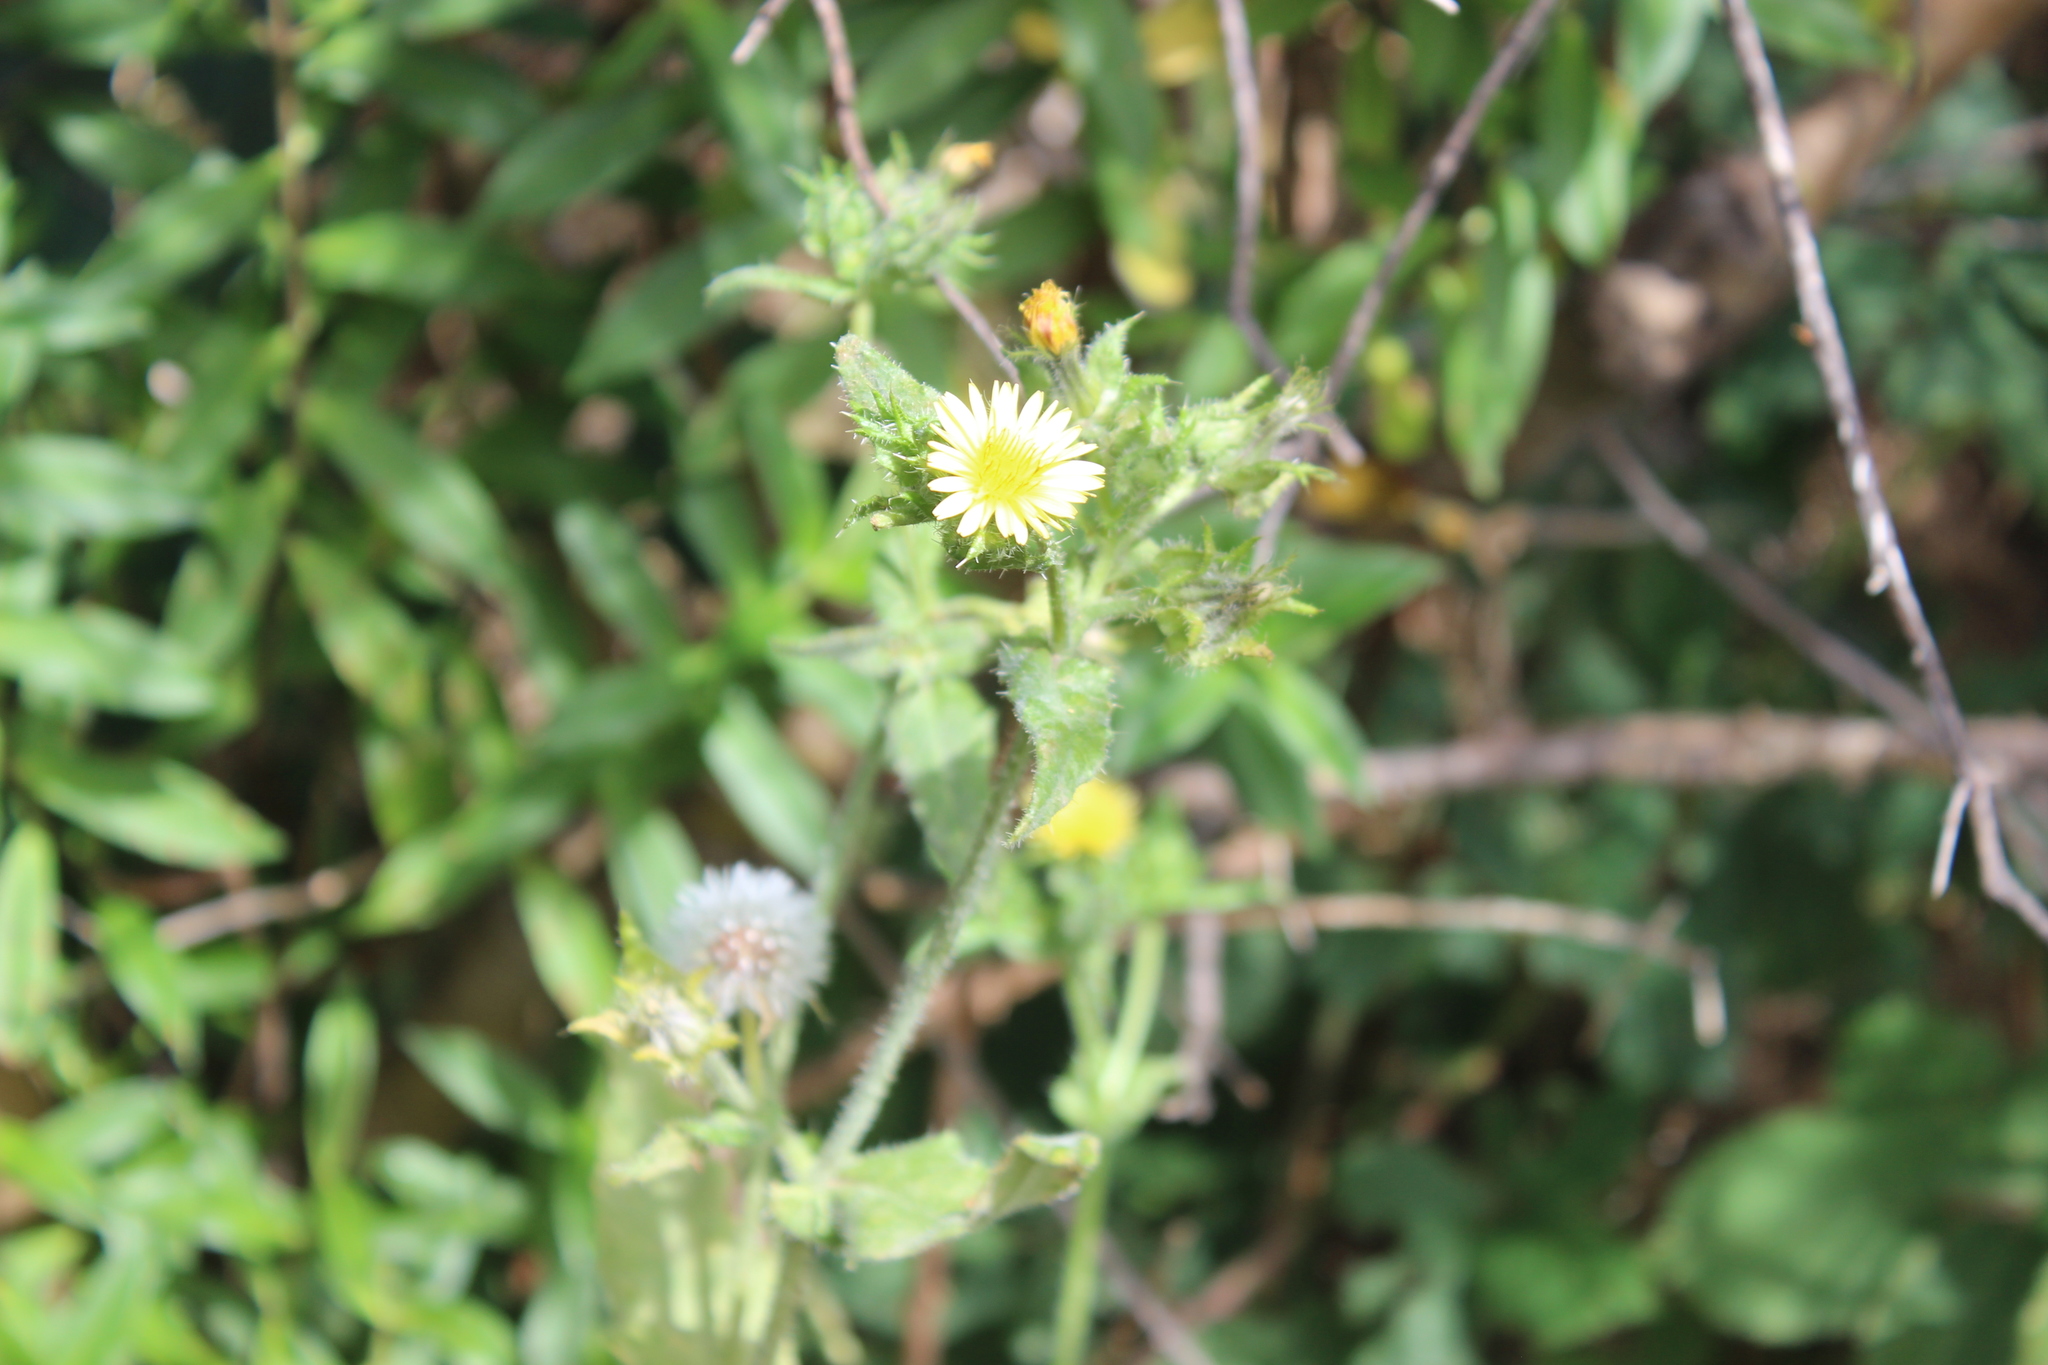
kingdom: Plantae
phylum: Tracheophyta
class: Magnoliopsida
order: Asterales
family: Asteraceae
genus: Sonchus
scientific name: Sonchus oleraceus
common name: Common sowthistle
